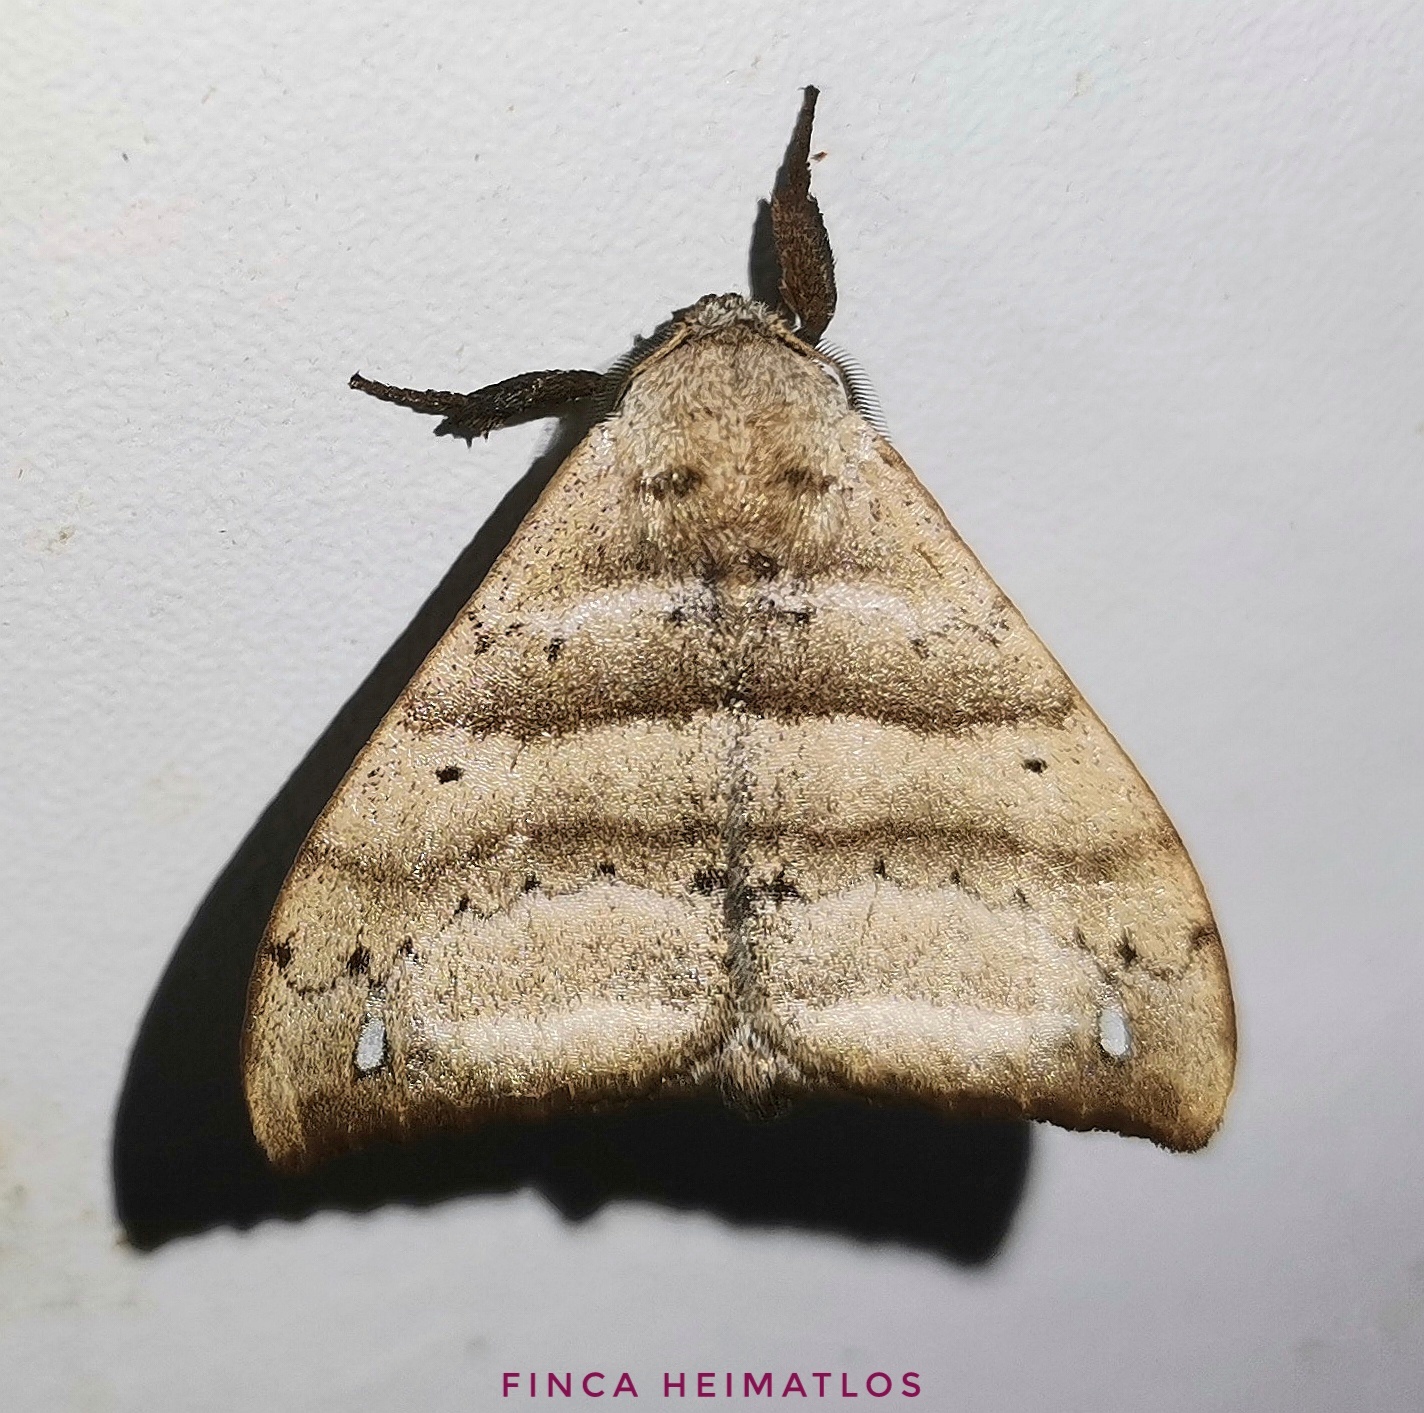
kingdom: Animalia
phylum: Arthropoda
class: Insecta
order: Lepidoptera
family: Apatelodidae
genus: Falcatelodes
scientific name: Falcatelodes anava
